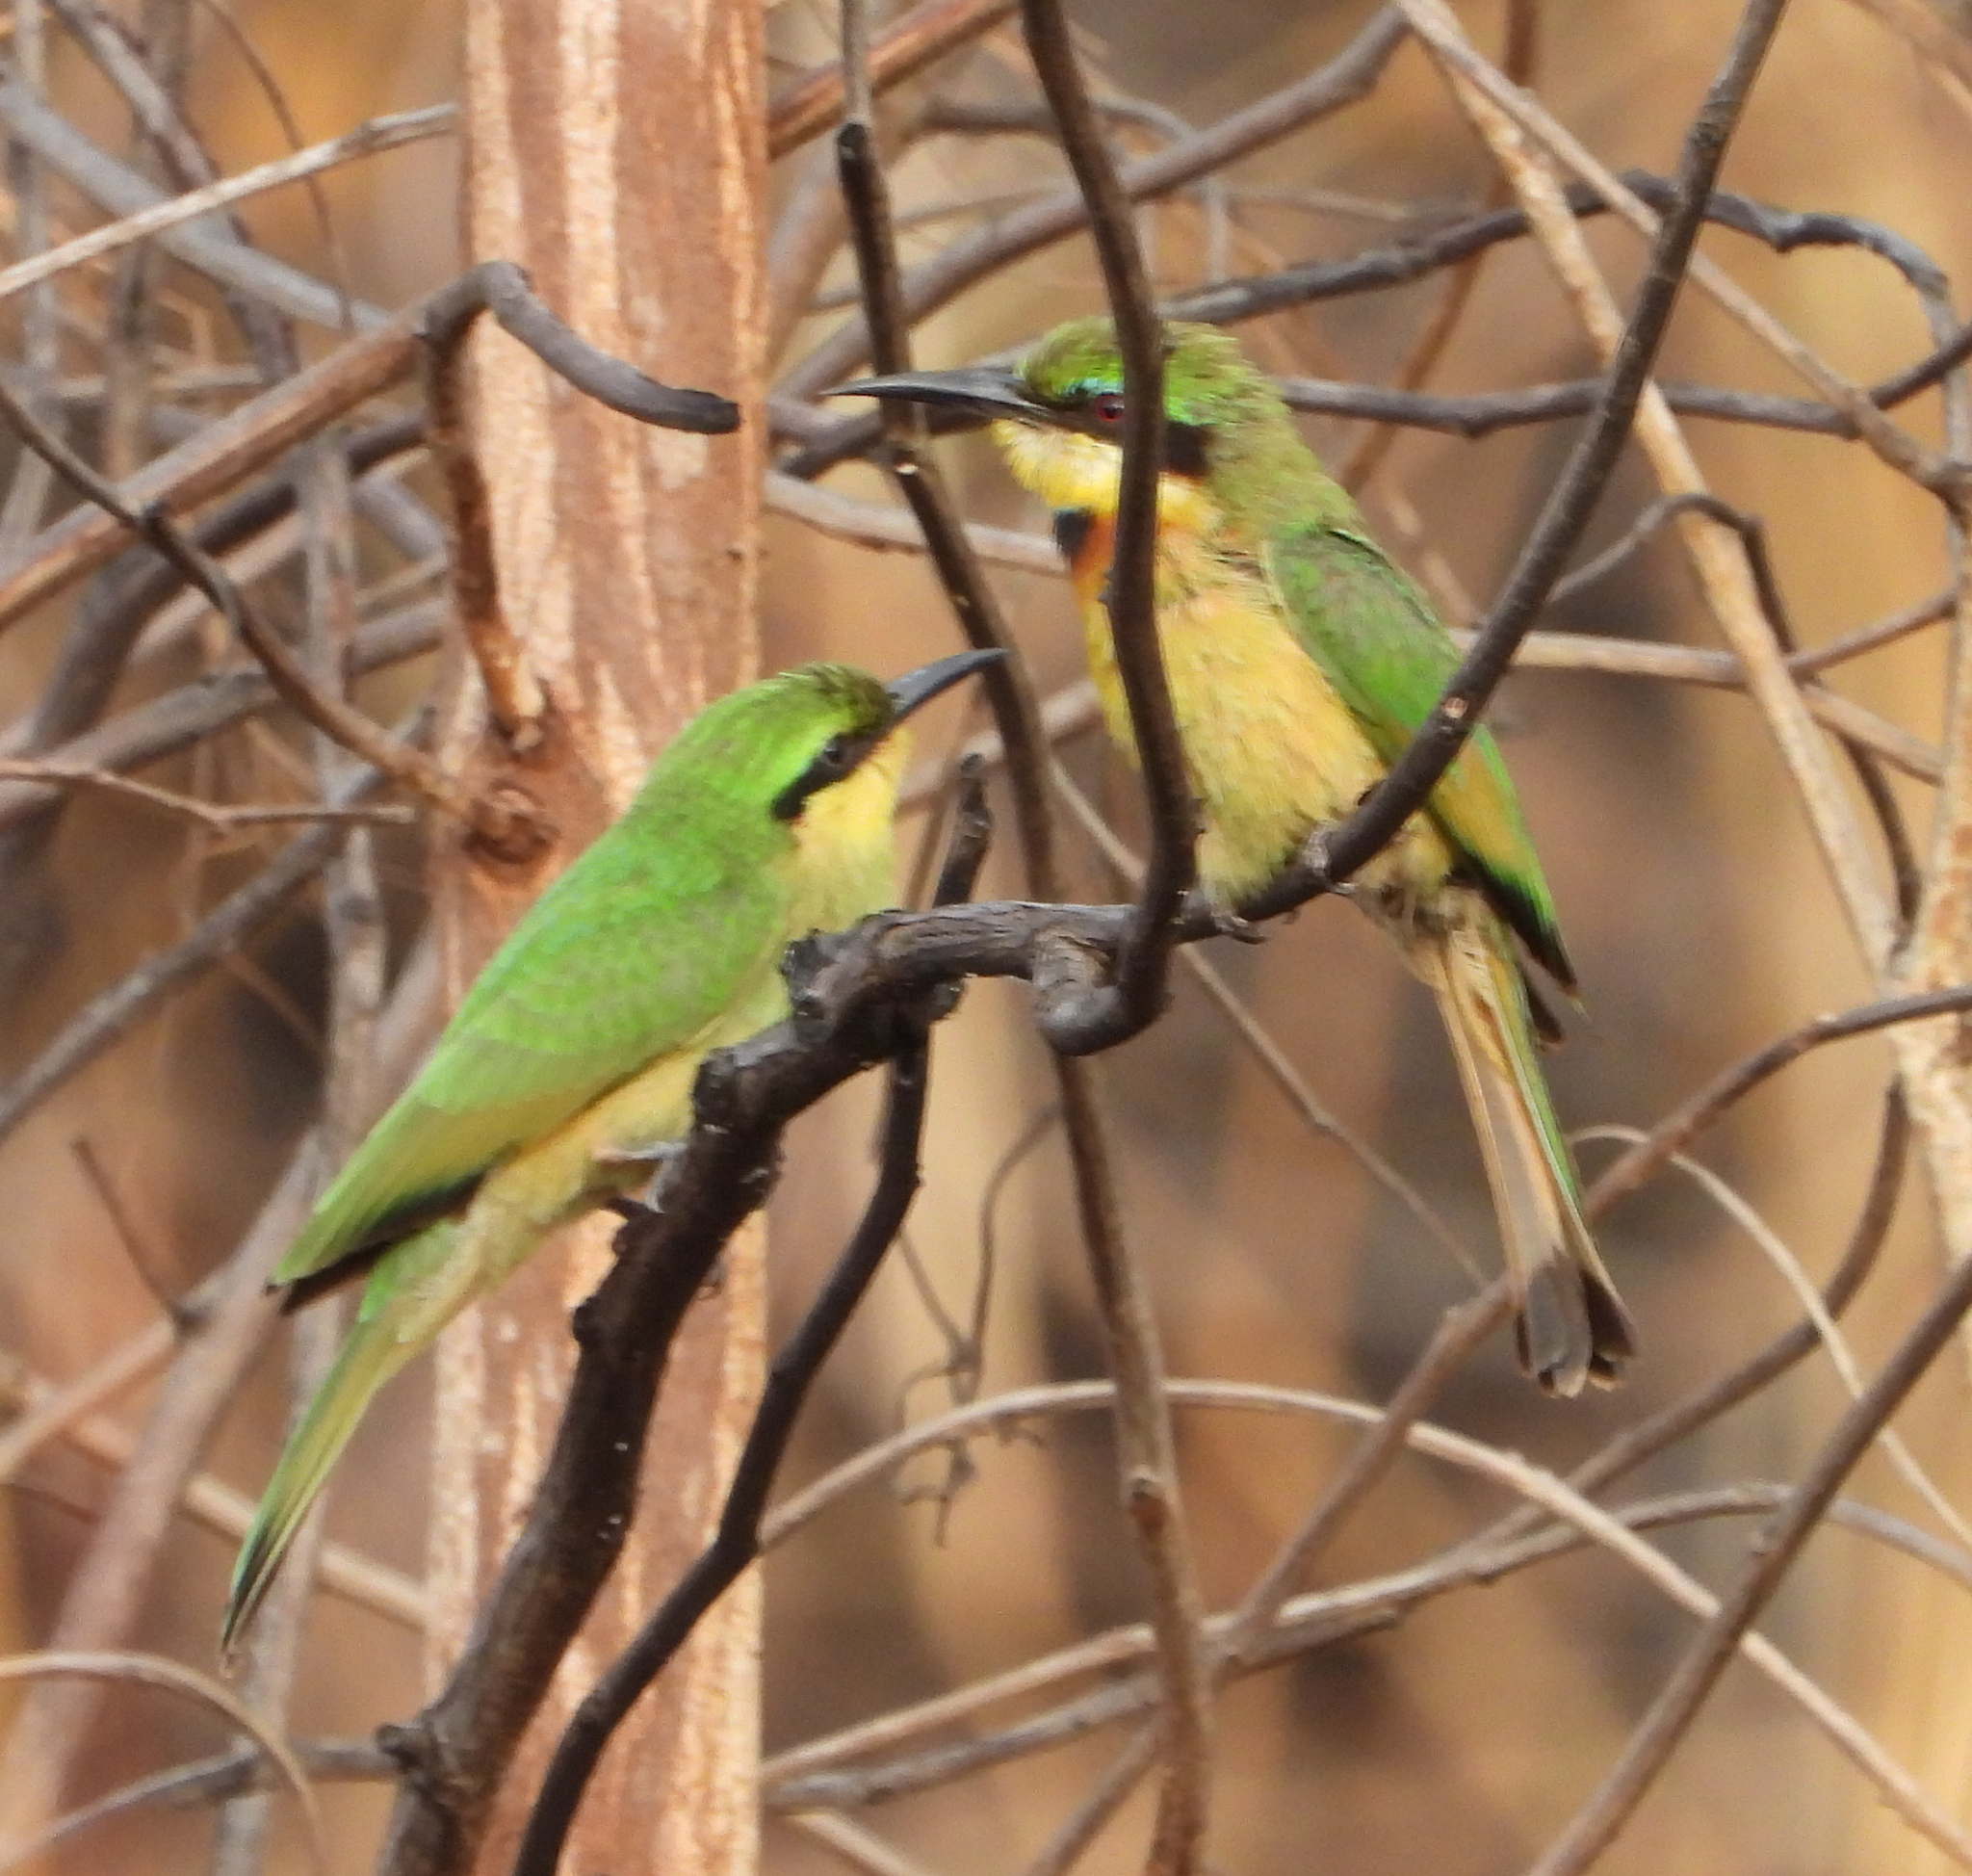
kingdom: Animalia
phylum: Chordata
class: Aves
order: Coraciiformes
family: Meropidae
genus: Merops
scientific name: Merops pusillus
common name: Little bee-eater
